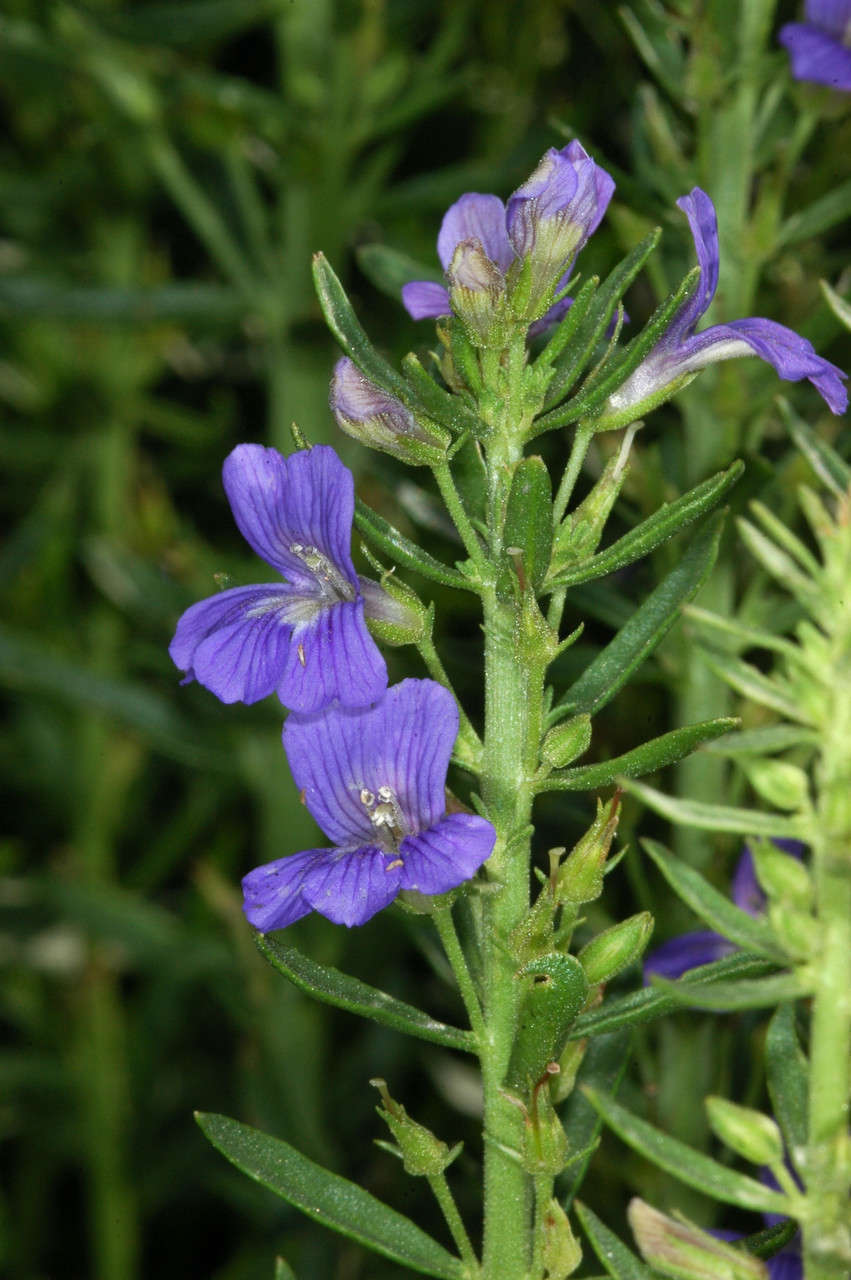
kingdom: Plantae
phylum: Tracheophyta
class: Magnoliopsida
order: Lamiales
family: Plantaginaceae
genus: Stemodia
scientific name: Stemodia florulenta
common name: Bluerod
